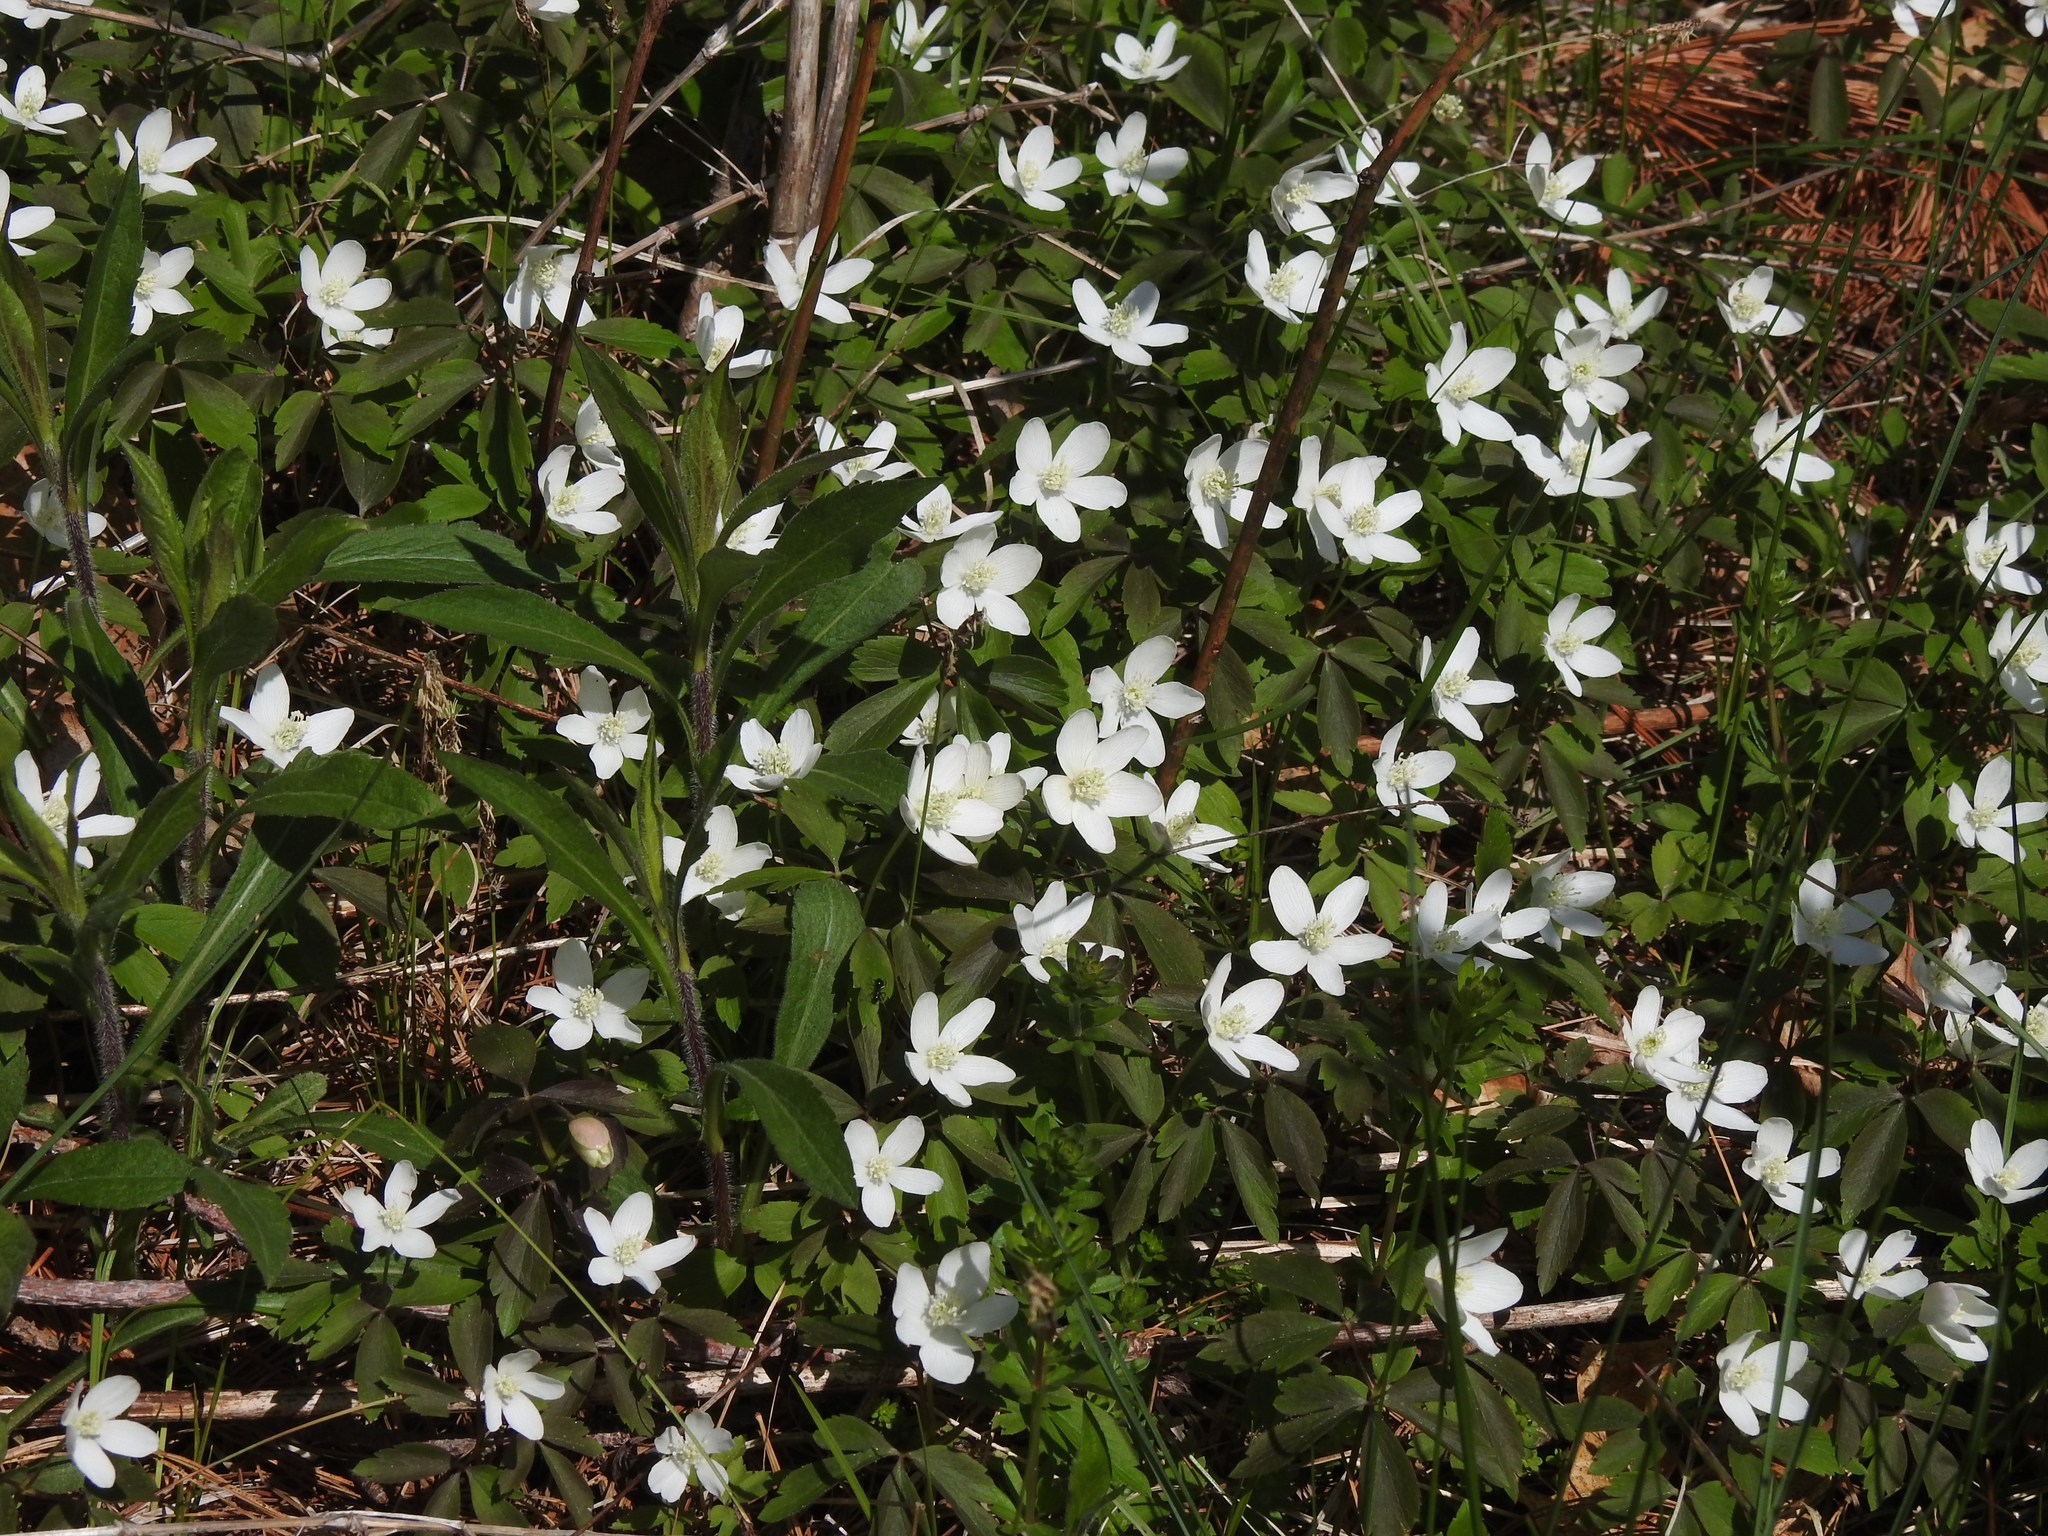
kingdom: Plantae
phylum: Tracheophyta
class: Magnoliopsida
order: Ranunculales
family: Ranunculaceae
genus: Anemone
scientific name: Anemone quinquefolia
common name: Wood anemone
